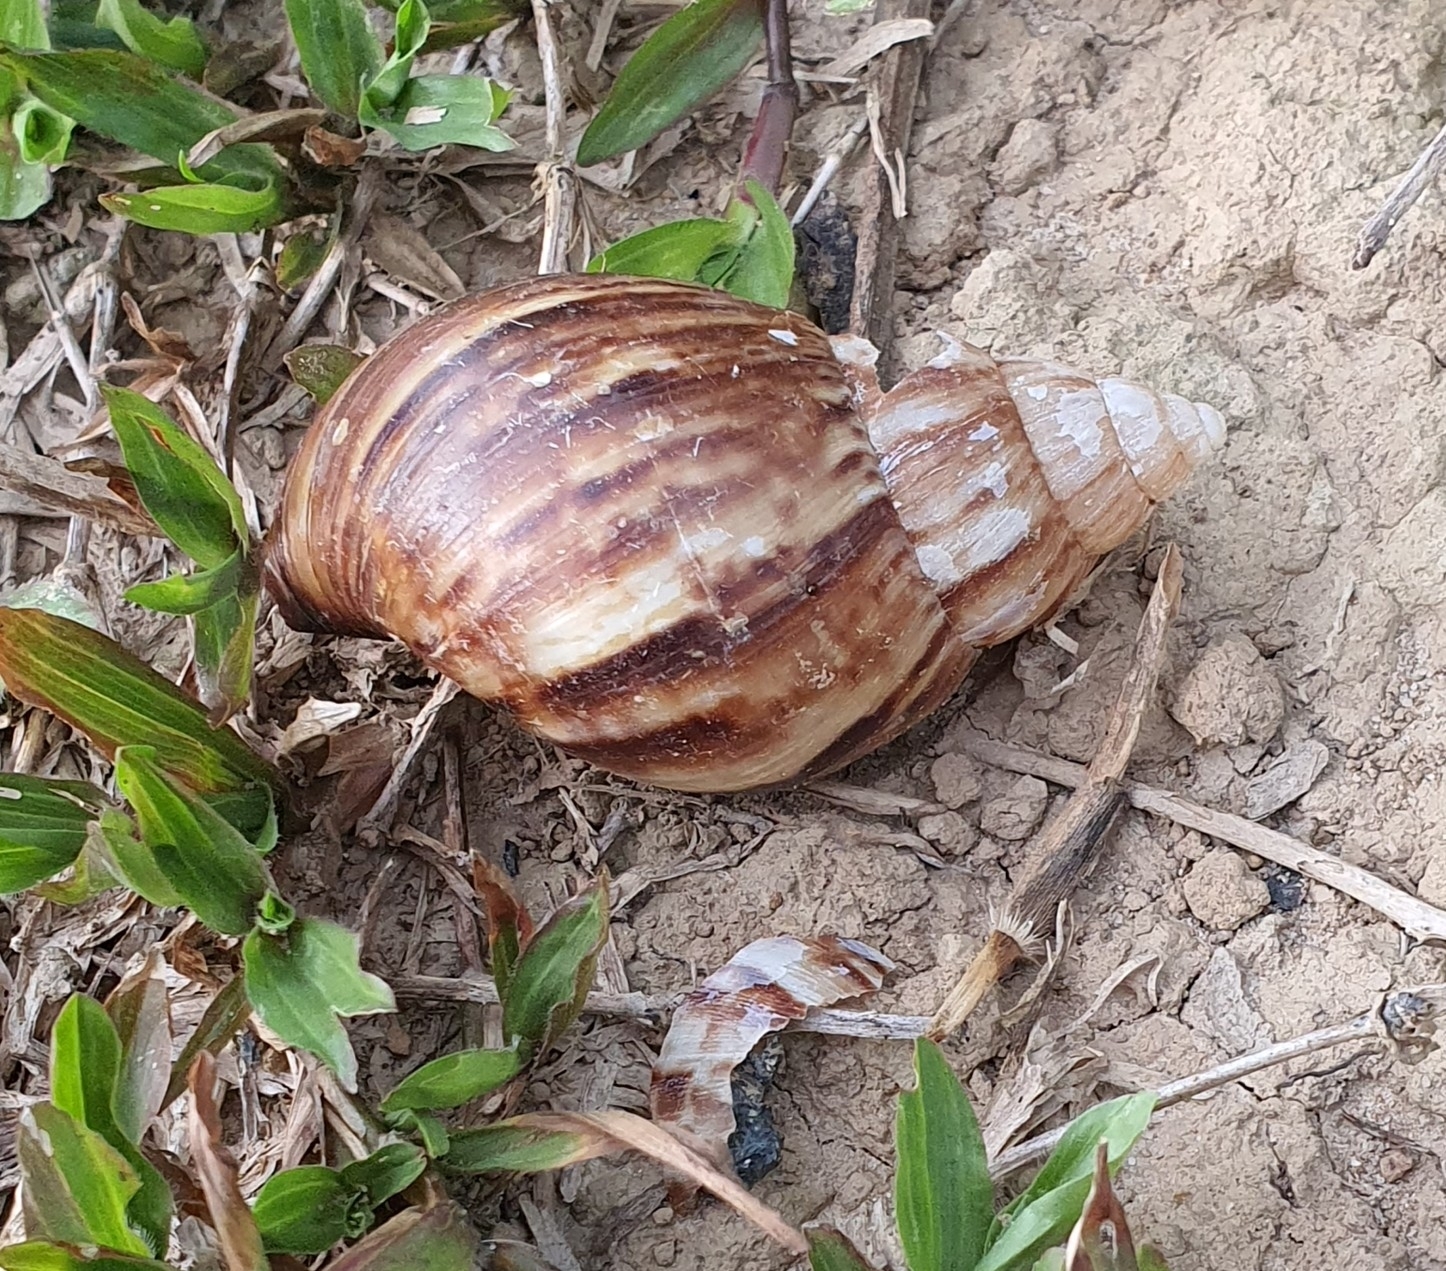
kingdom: Animalia
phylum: Mollusca
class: Gastropoda
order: Stylommatophora
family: Achatinidae
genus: Lissachatina
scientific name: Lissachatina fulica
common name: Giant african snail
